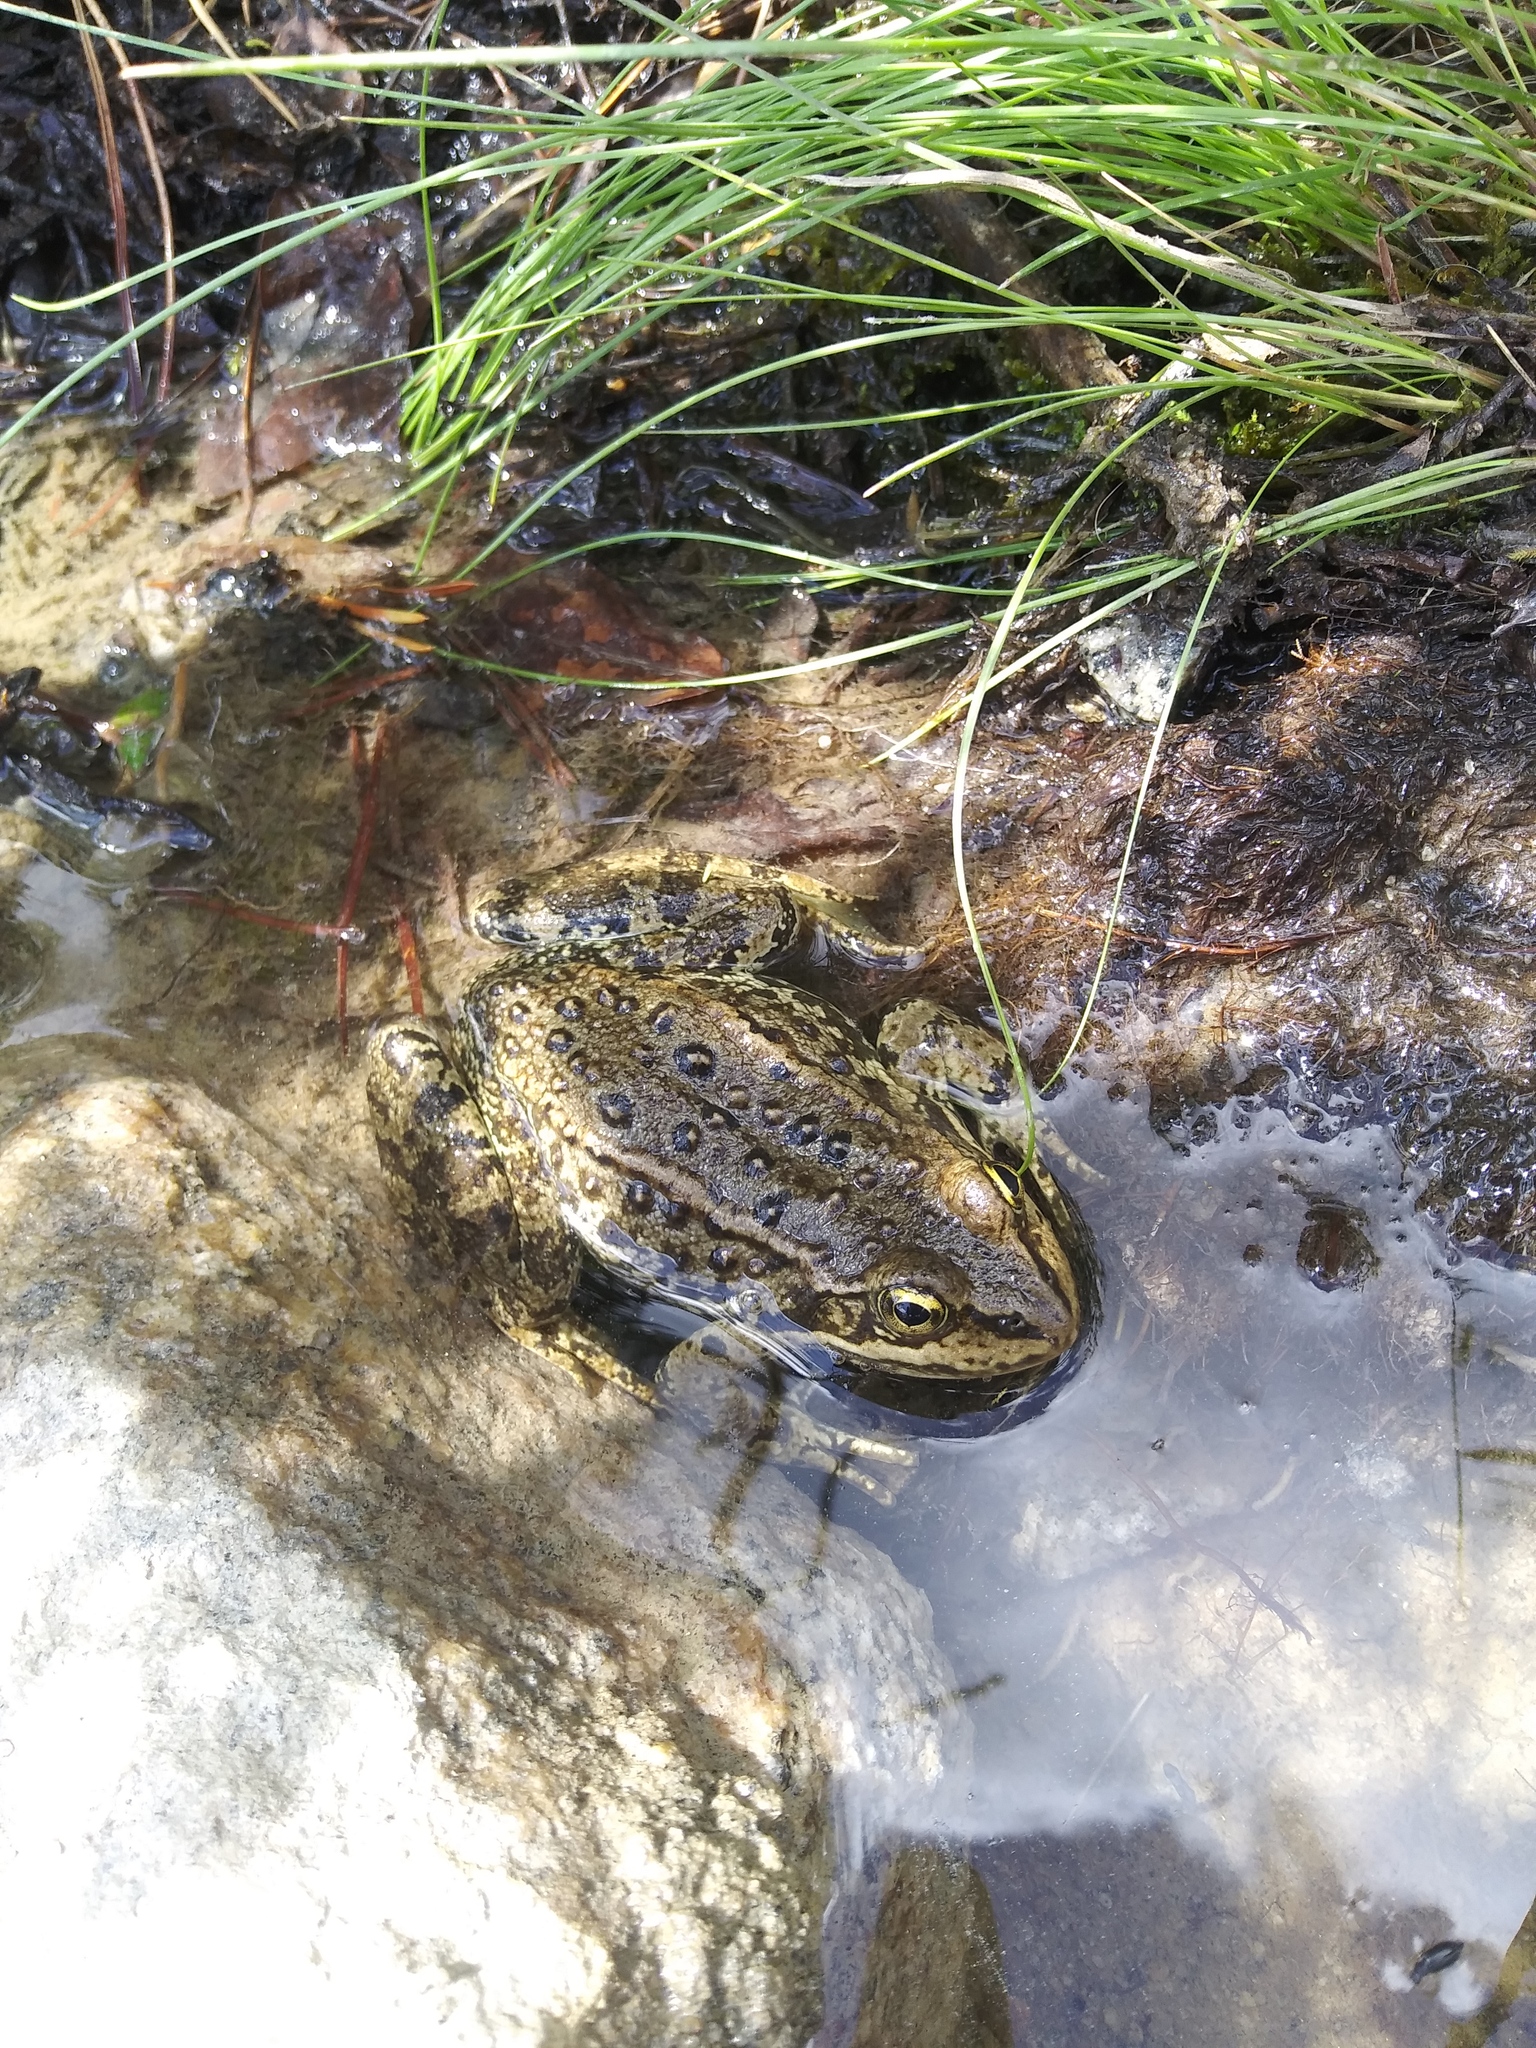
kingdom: Animalia
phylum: Chordata
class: Amphibia
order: Anura
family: Ranidae
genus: Rana
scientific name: Rana luteiventris
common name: Columbia spotted frog
